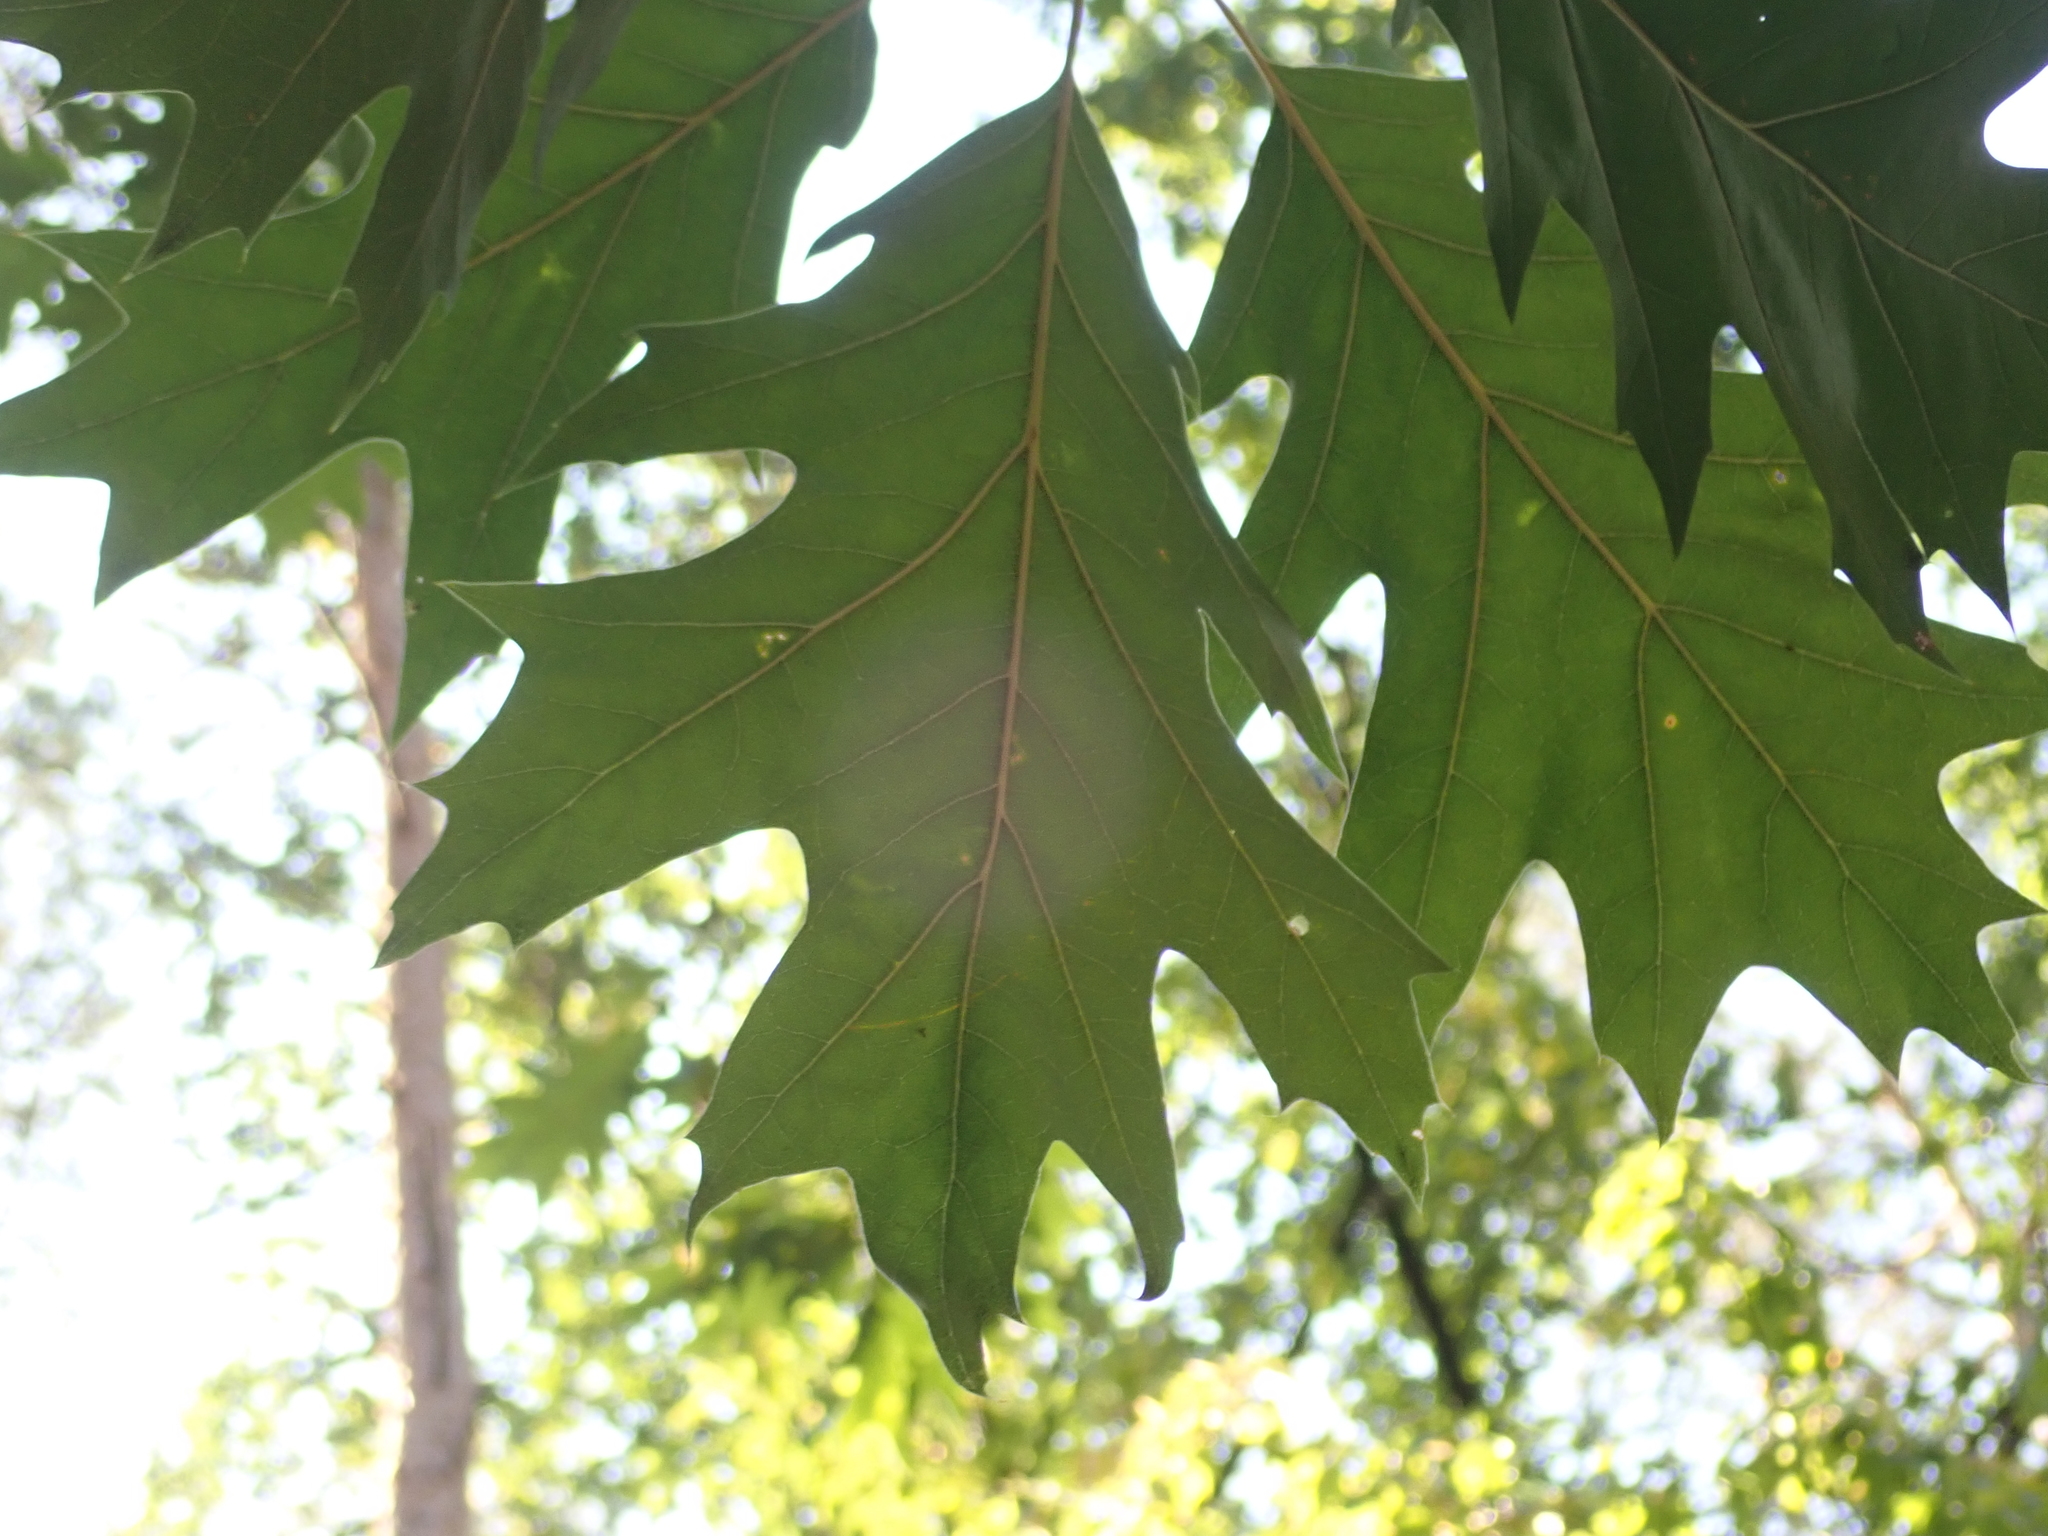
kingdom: Plantae
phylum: Tracheophyta
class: Magnoliopsida
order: Fagales
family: Fagaceae
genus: Quercus
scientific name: Quercus rubra
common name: Red oak
